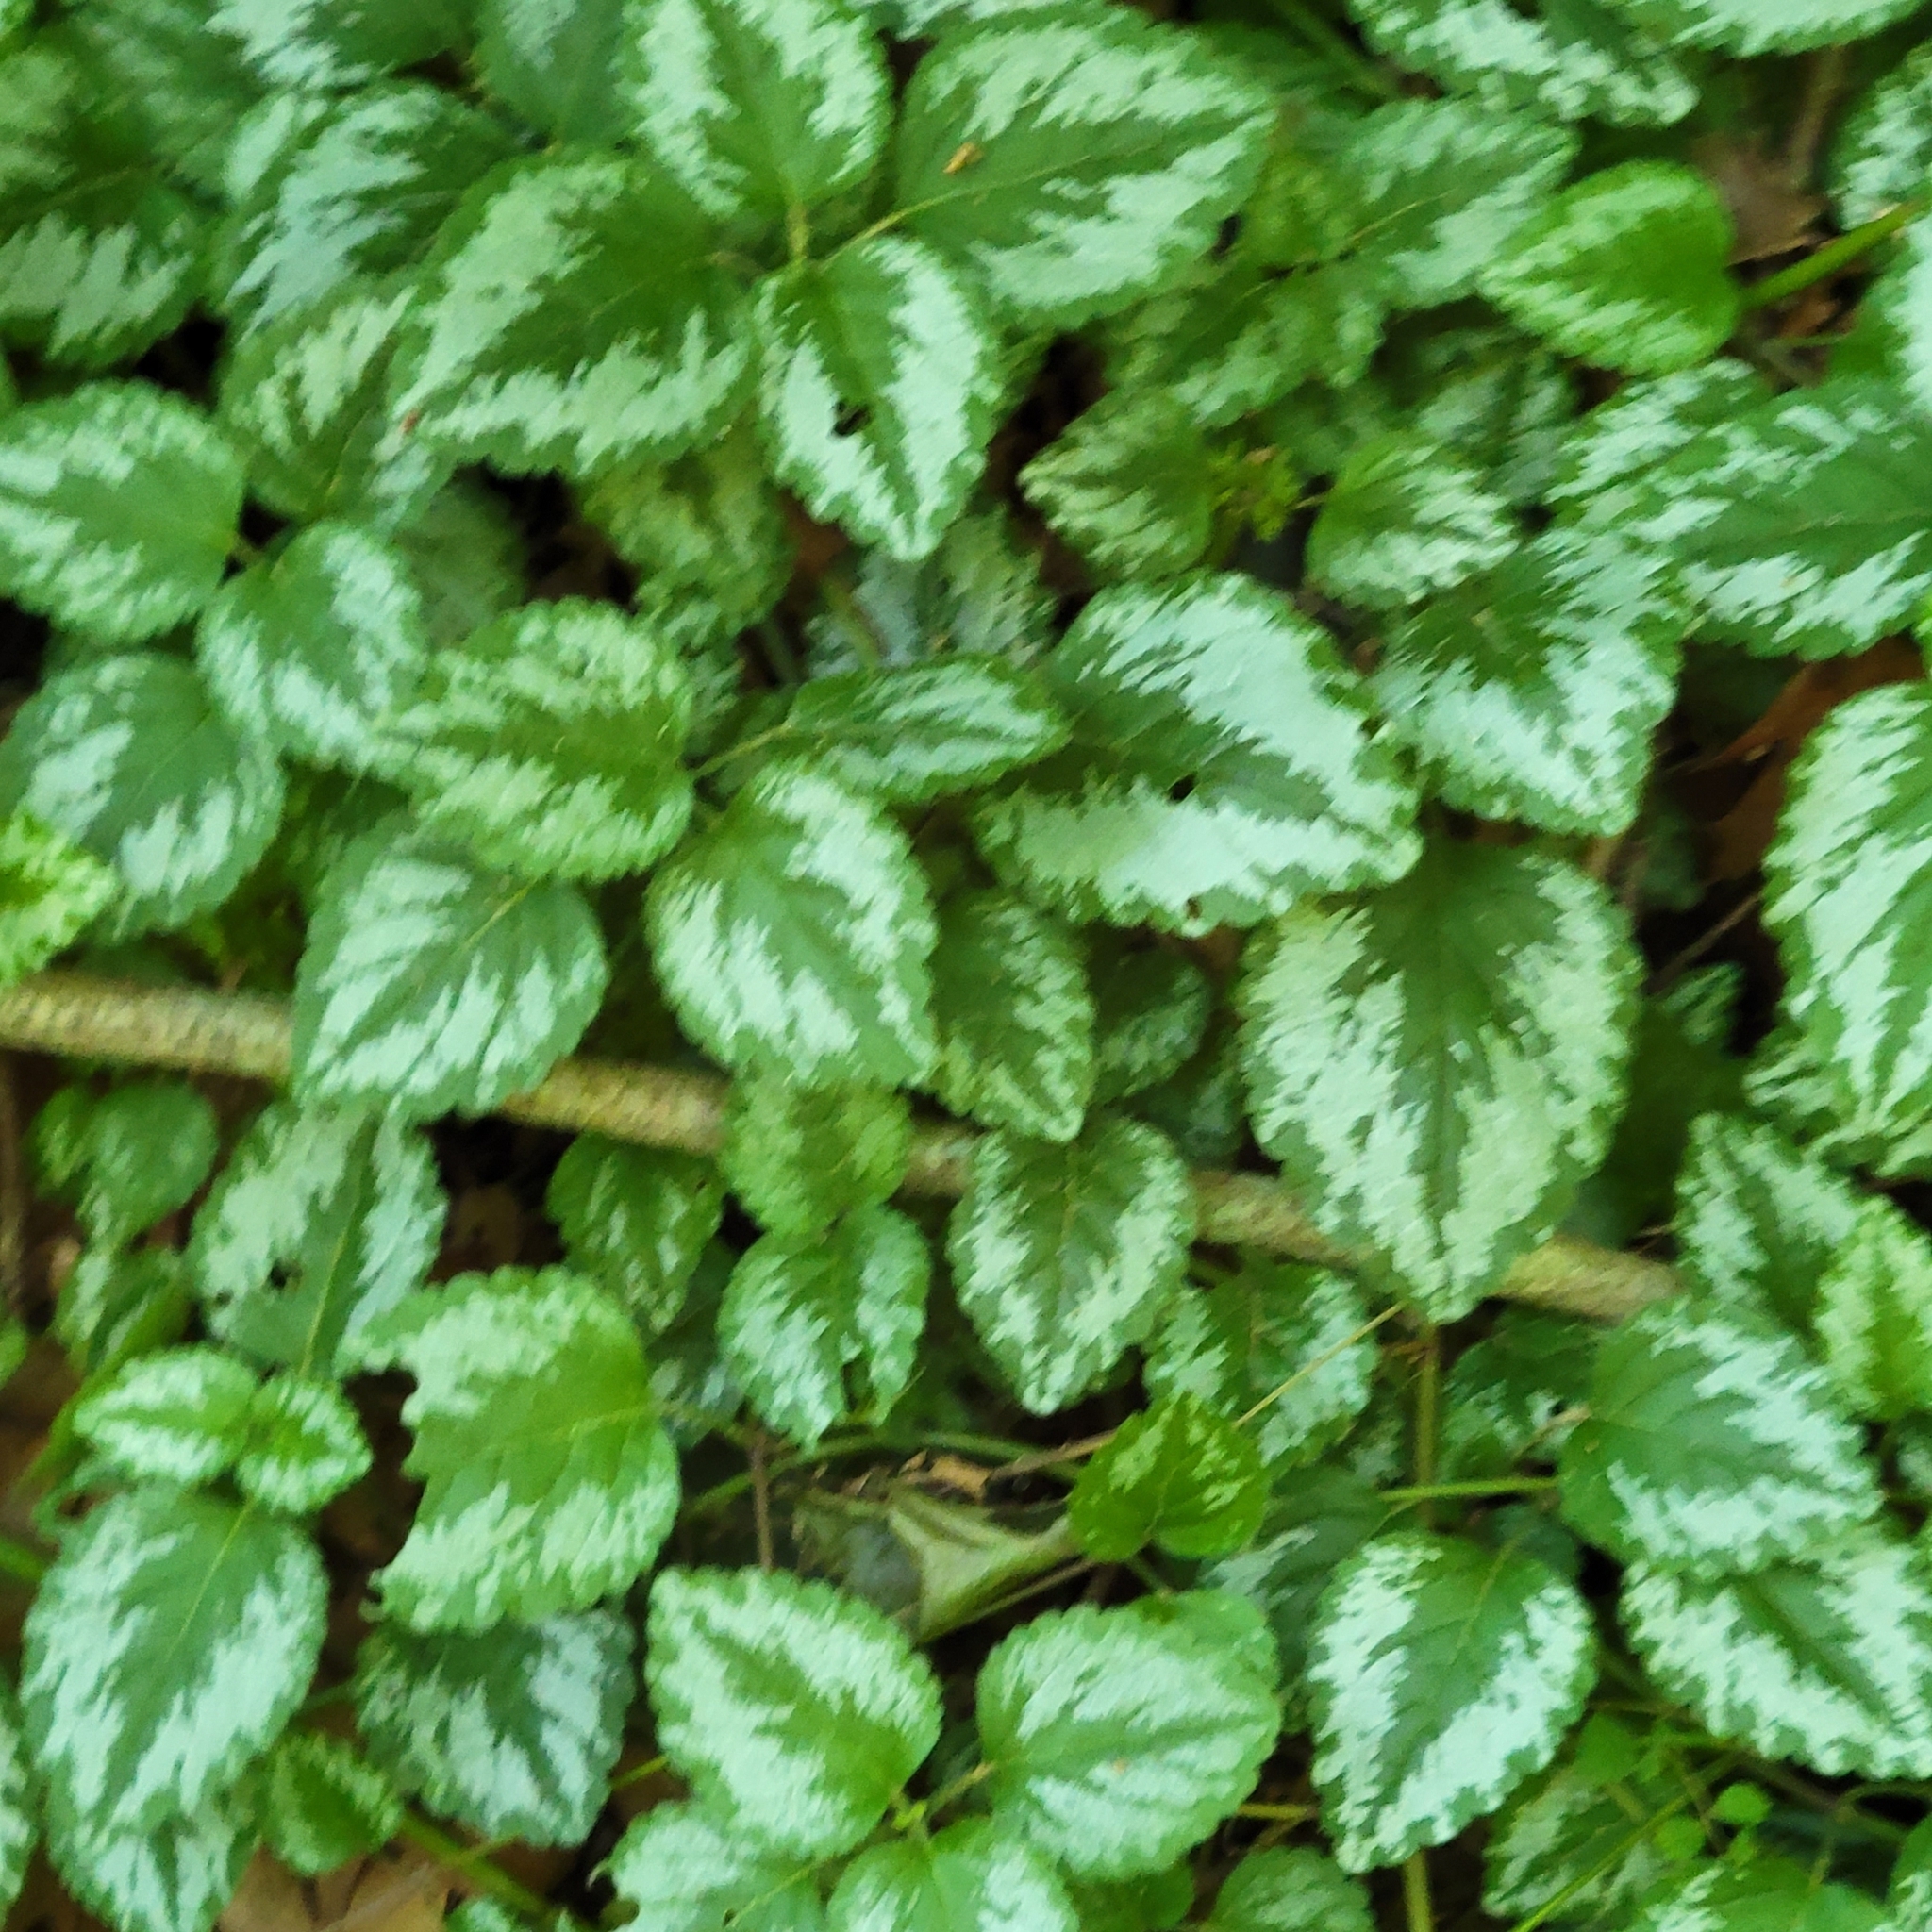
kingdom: Plantae
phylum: Tracheophyta
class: Magnoliopsida
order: Lamiales
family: Lamiaceae
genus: Lamium
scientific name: Lamium galeobdolon
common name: Yellow archangel
